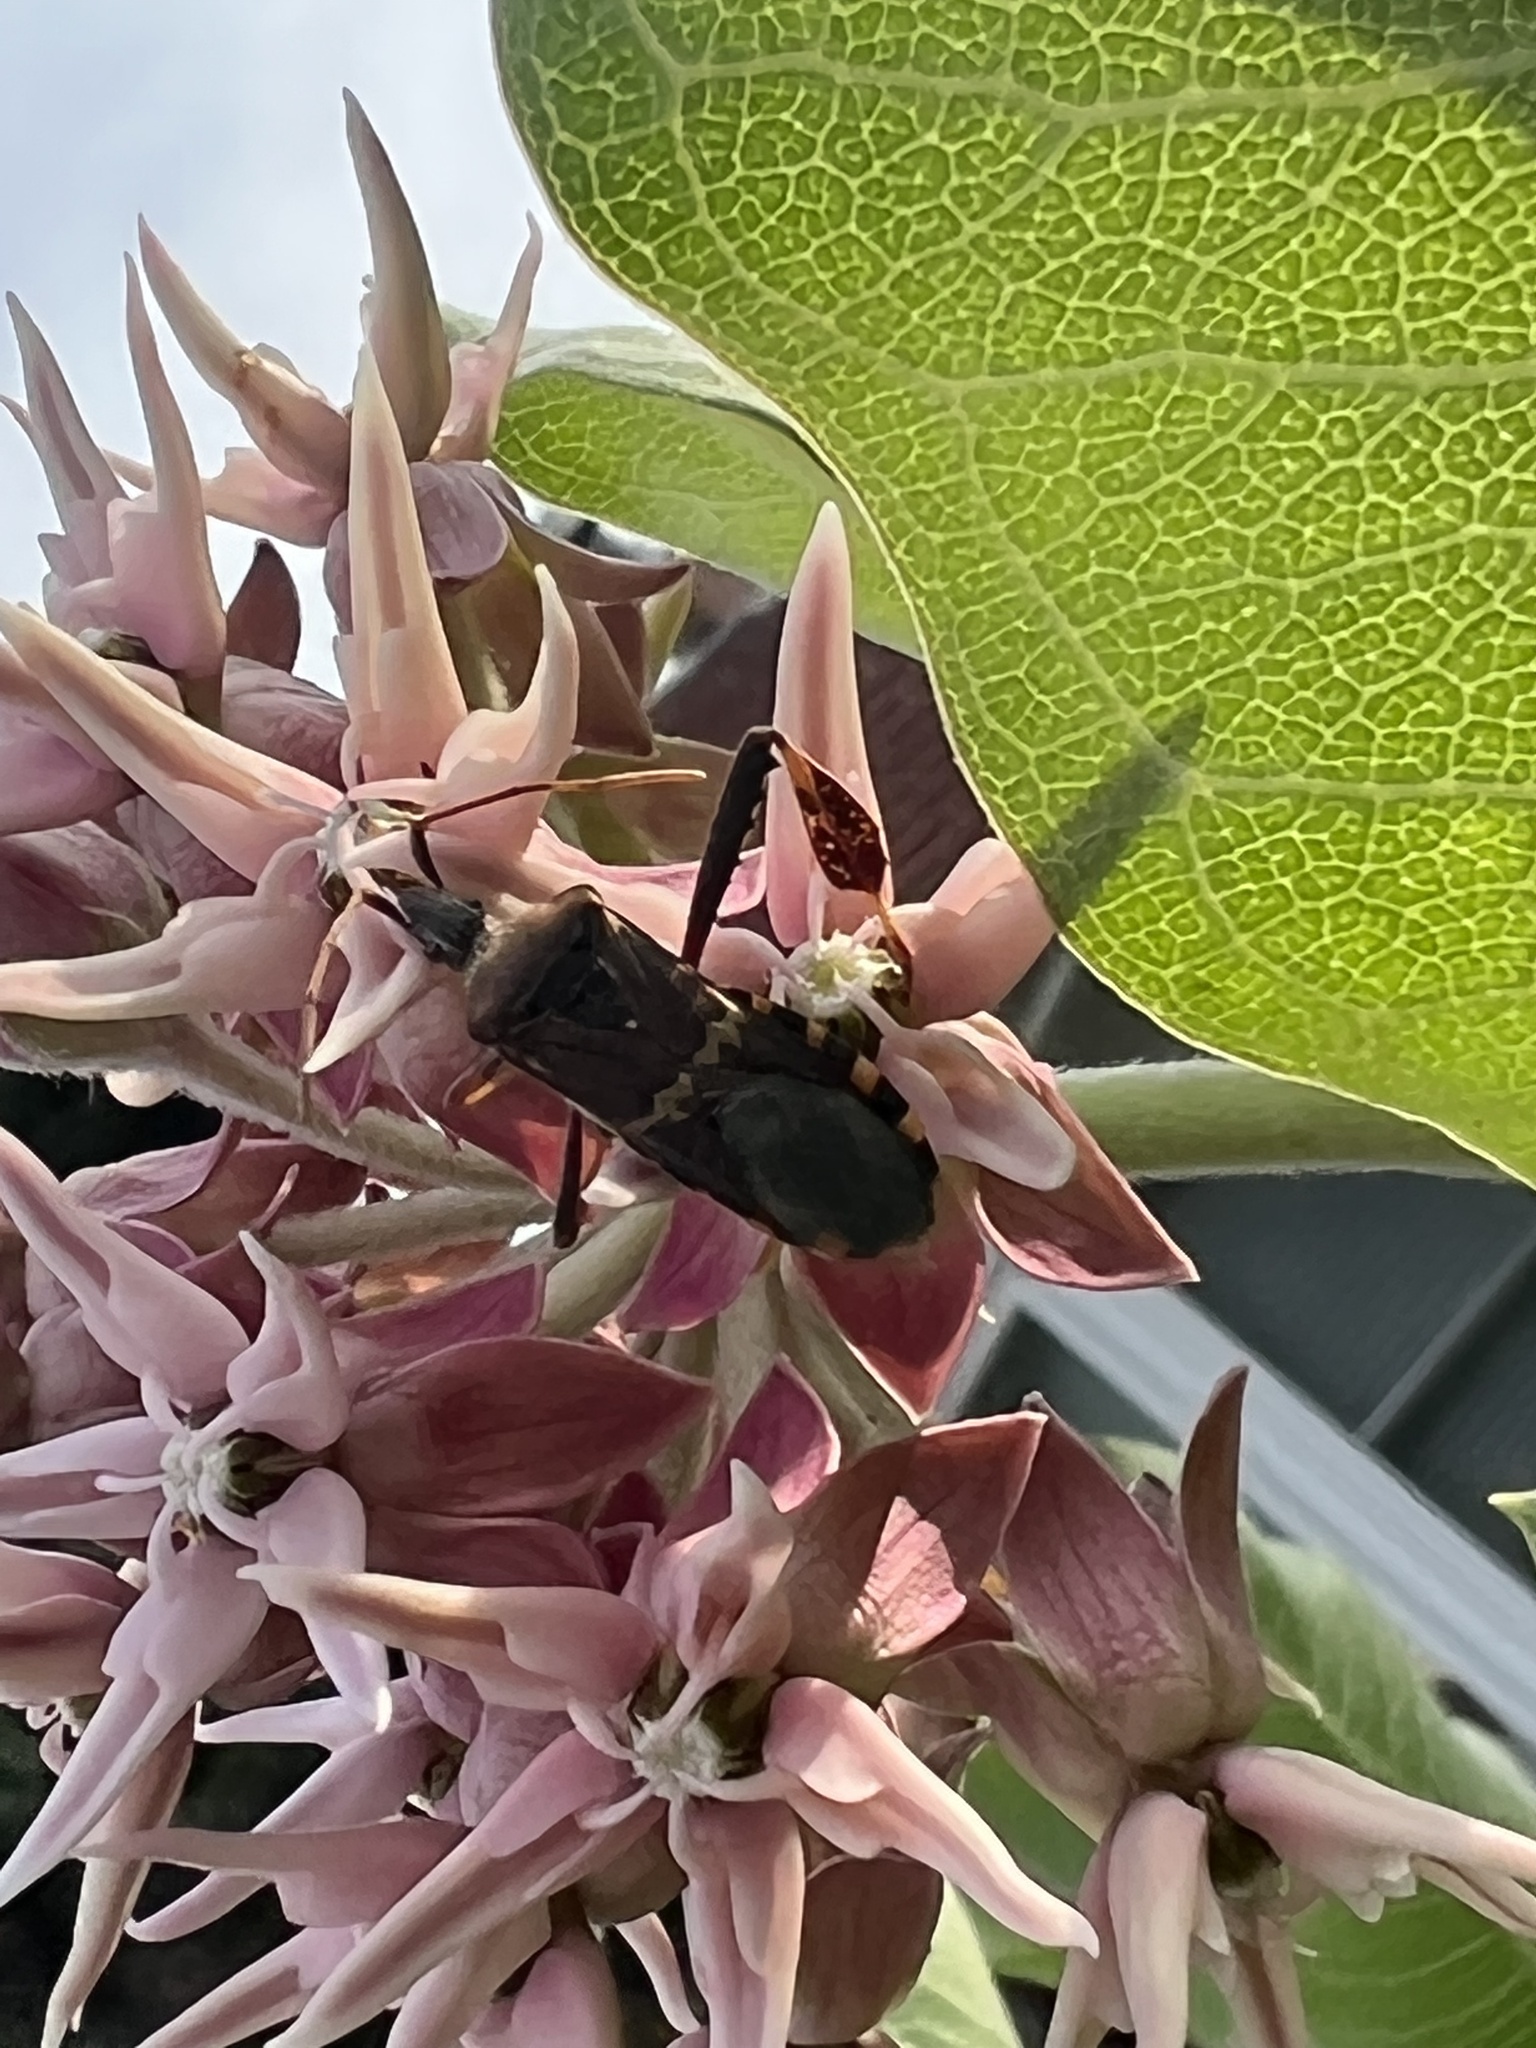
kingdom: Animalia
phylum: Arthropoda
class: Insecta
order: Hemiptera
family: Coreidae
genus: Leptoglossus
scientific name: Leptoglossus clypealis
